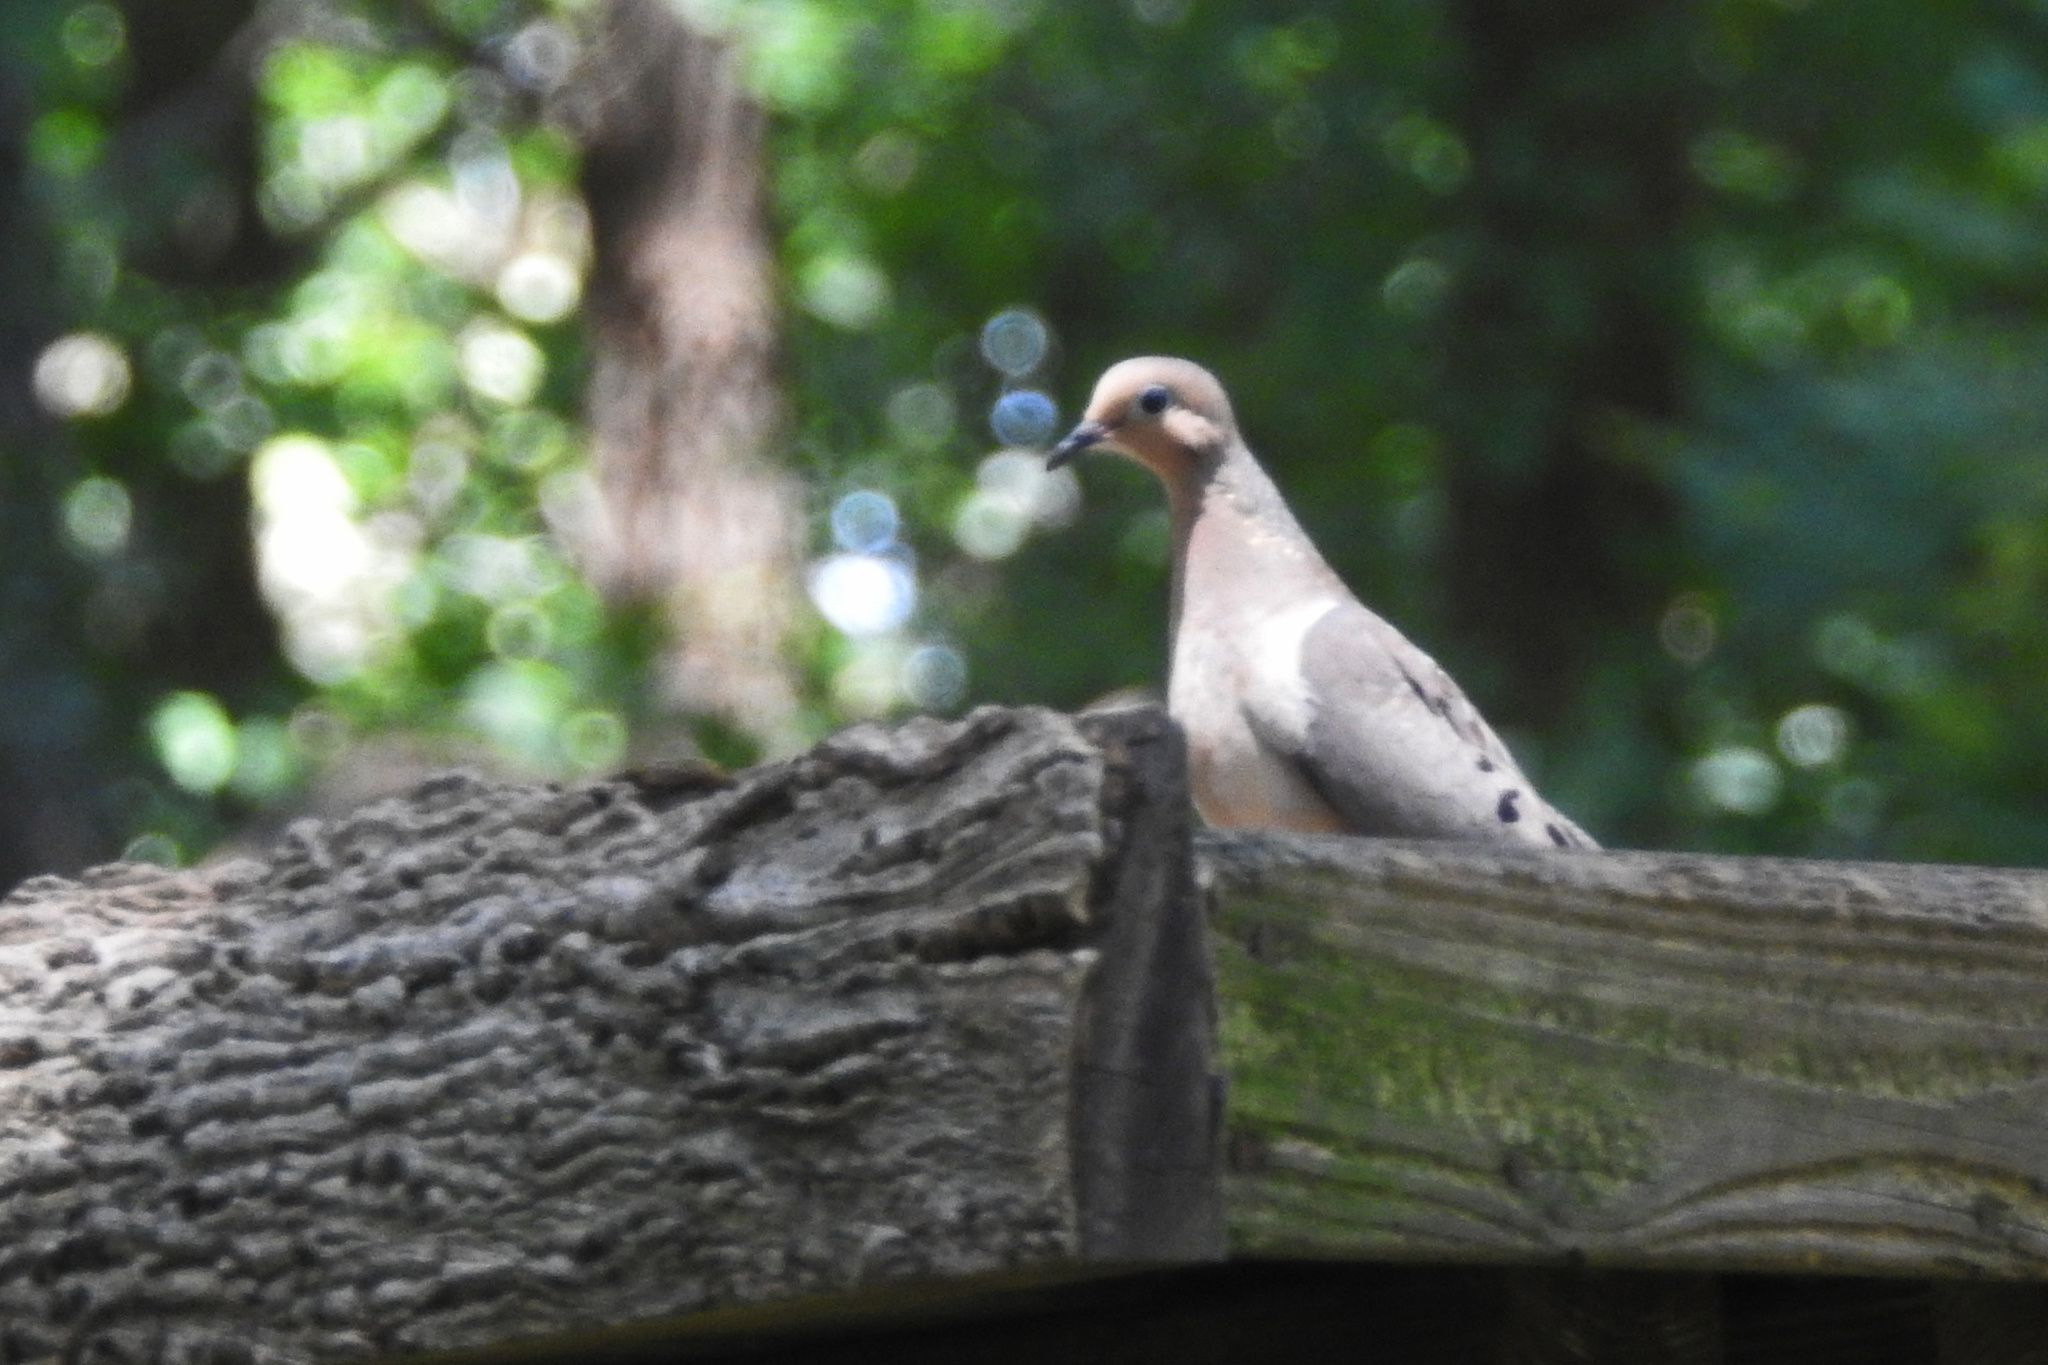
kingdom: Animalia
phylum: Chordata
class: Aves
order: Columbiformes
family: Columbidae
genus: Zenaida
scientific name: Zenaida macroura
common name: Mourning dove
